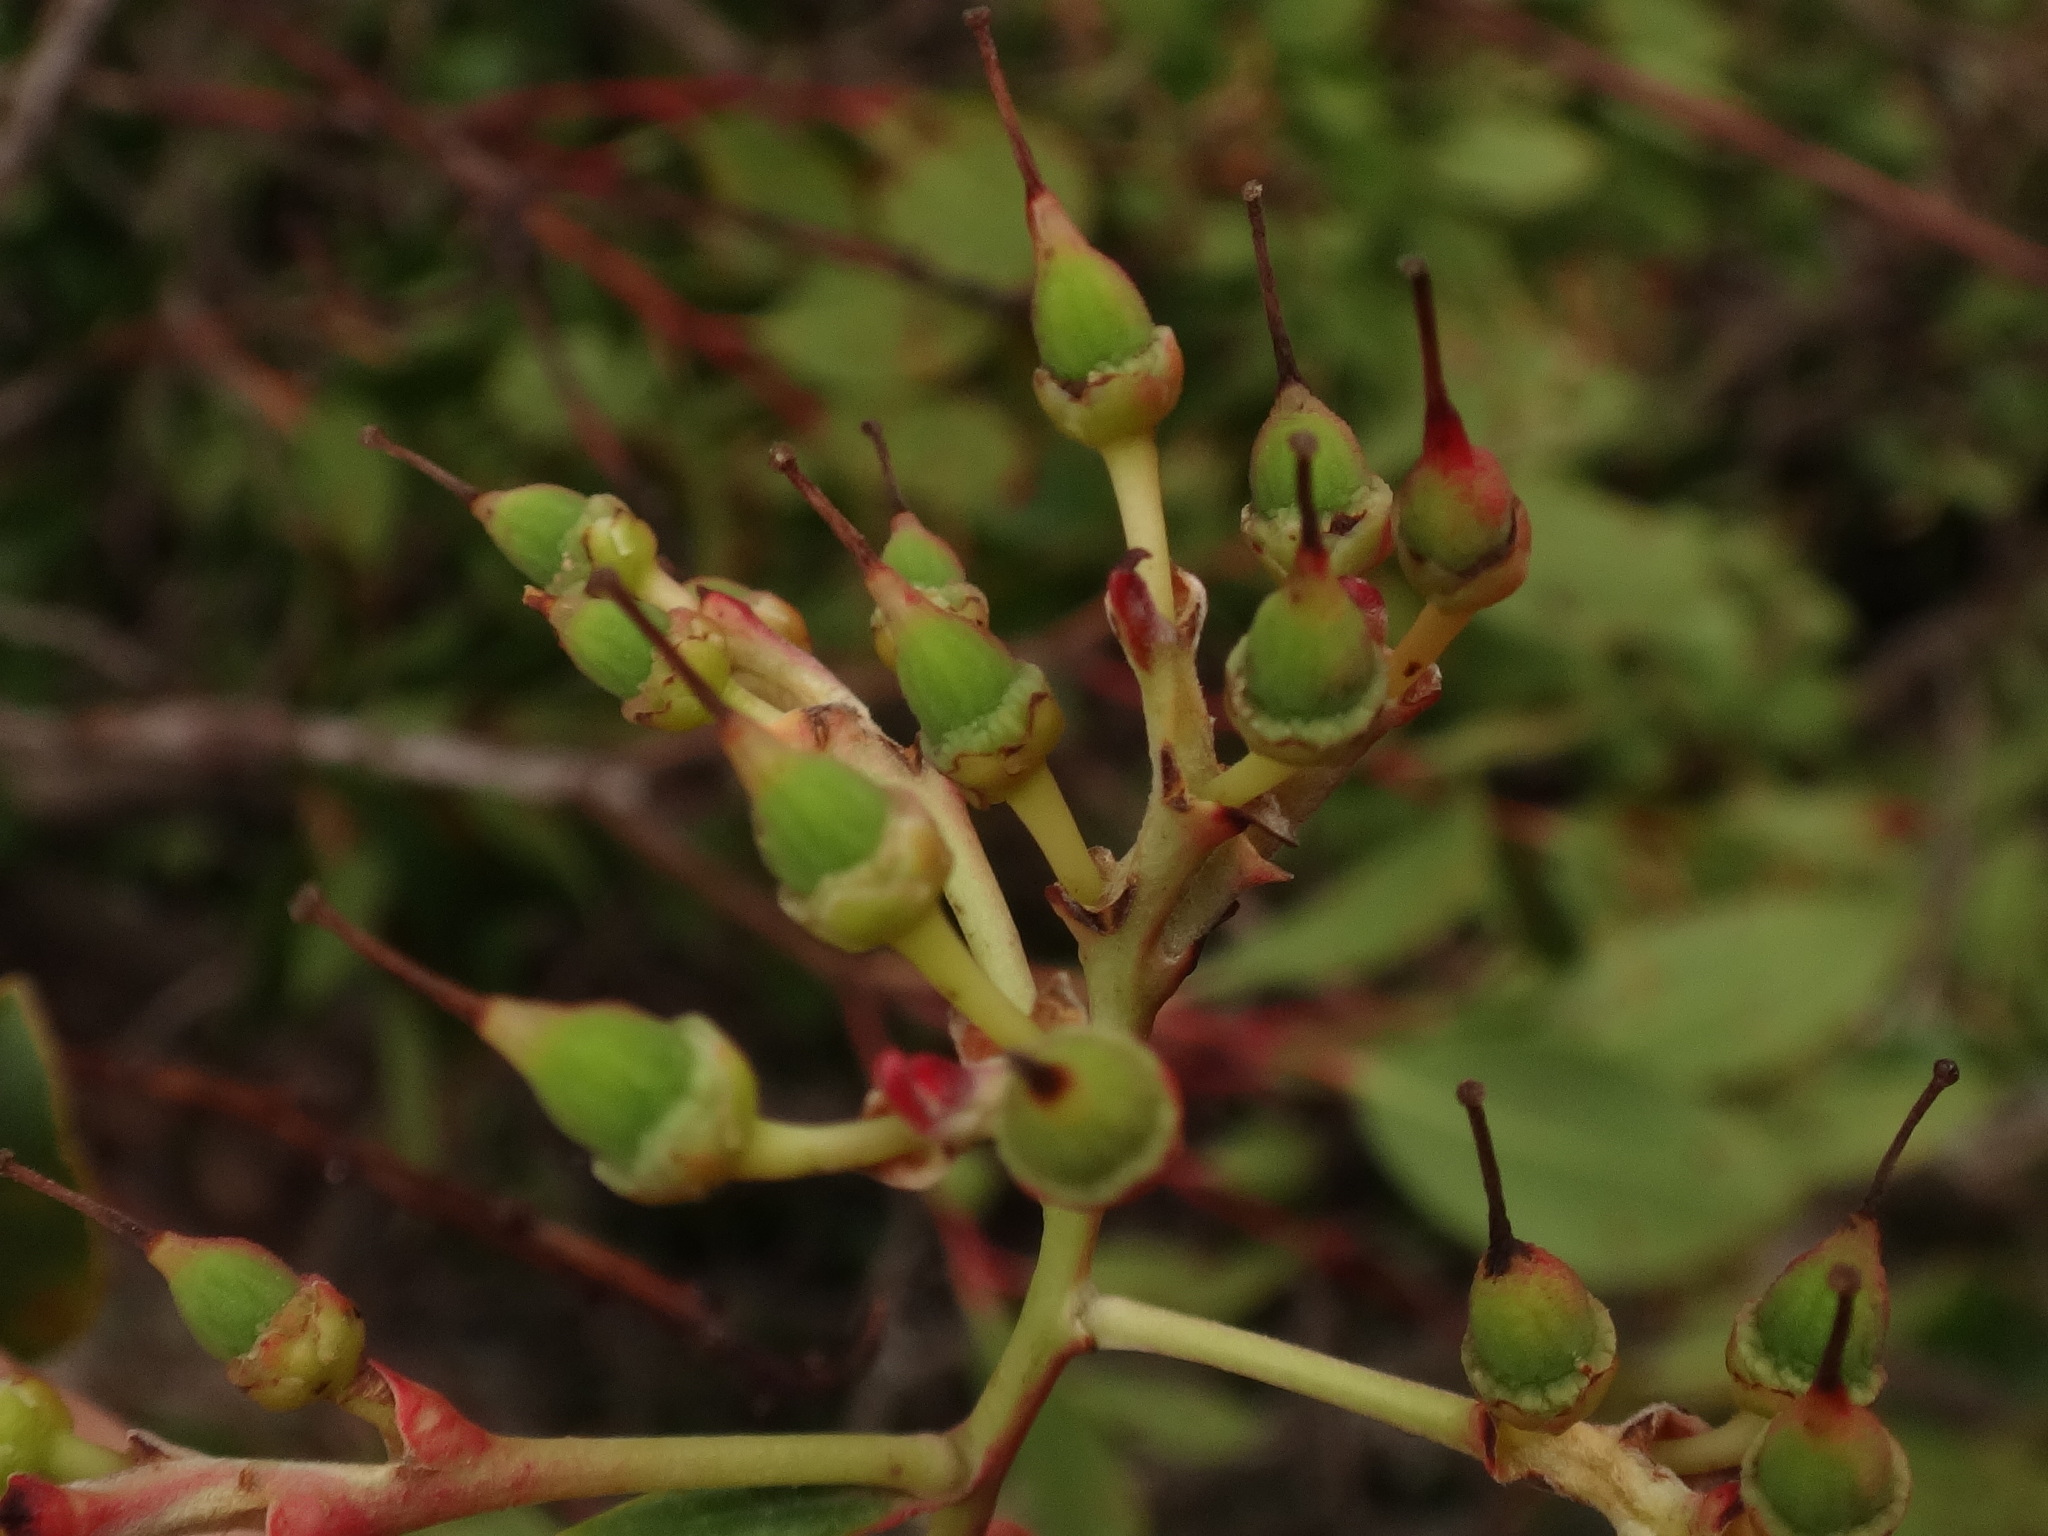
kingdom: Plantae
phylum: Tracheophyta
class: Magnoliopsida
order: Ericales
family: Ericaceae
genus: Arbutus
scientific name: Arbutus unedo
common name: Strawberry-tree
